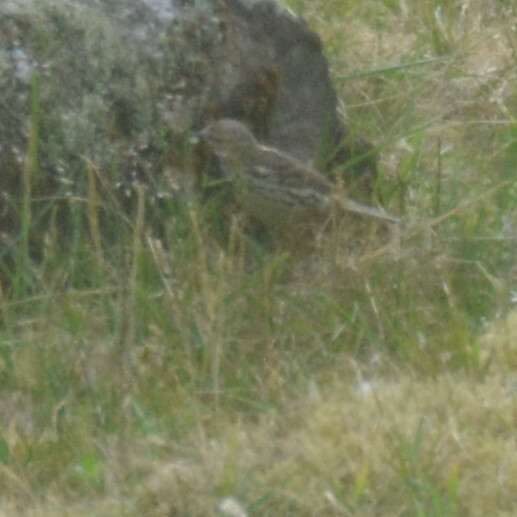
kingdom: Animalia
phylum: Chordata
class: Aves
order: Passeriformes
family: Motacillidae
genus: Anthus
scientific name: Anthus pratensis
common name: Meadow pipit
